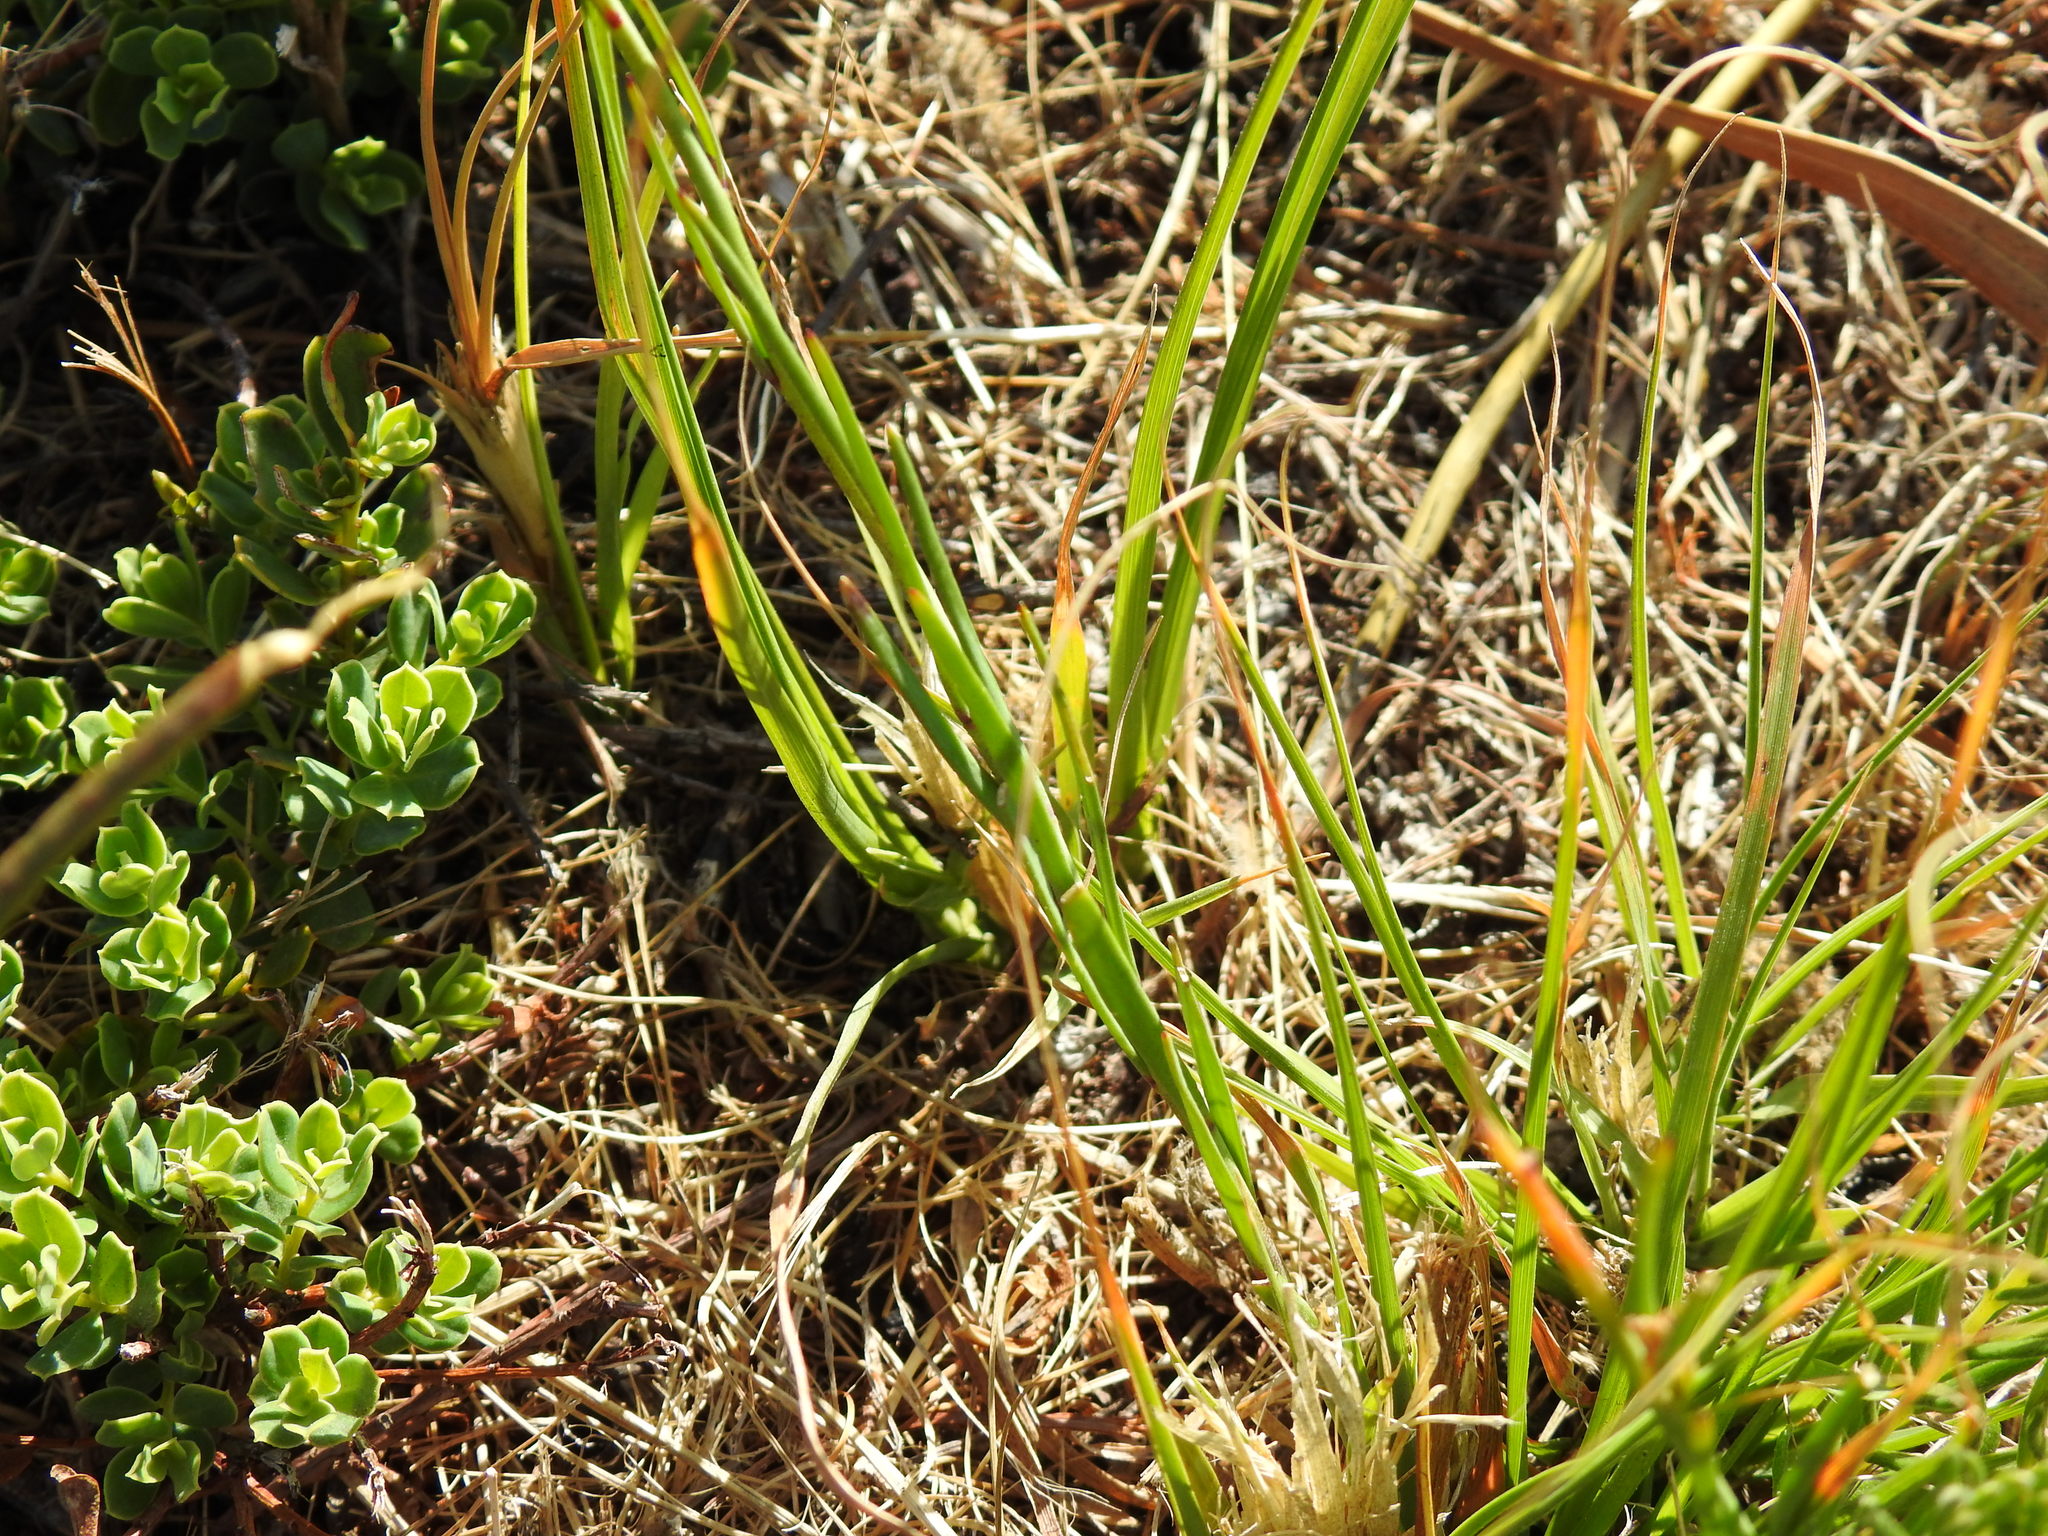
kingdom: Plantae
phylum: Tracheophyta
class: Magnoliopsida
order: Brassicales
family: Brassicaceae
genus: Heliophila
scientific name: Heliophila linearis
